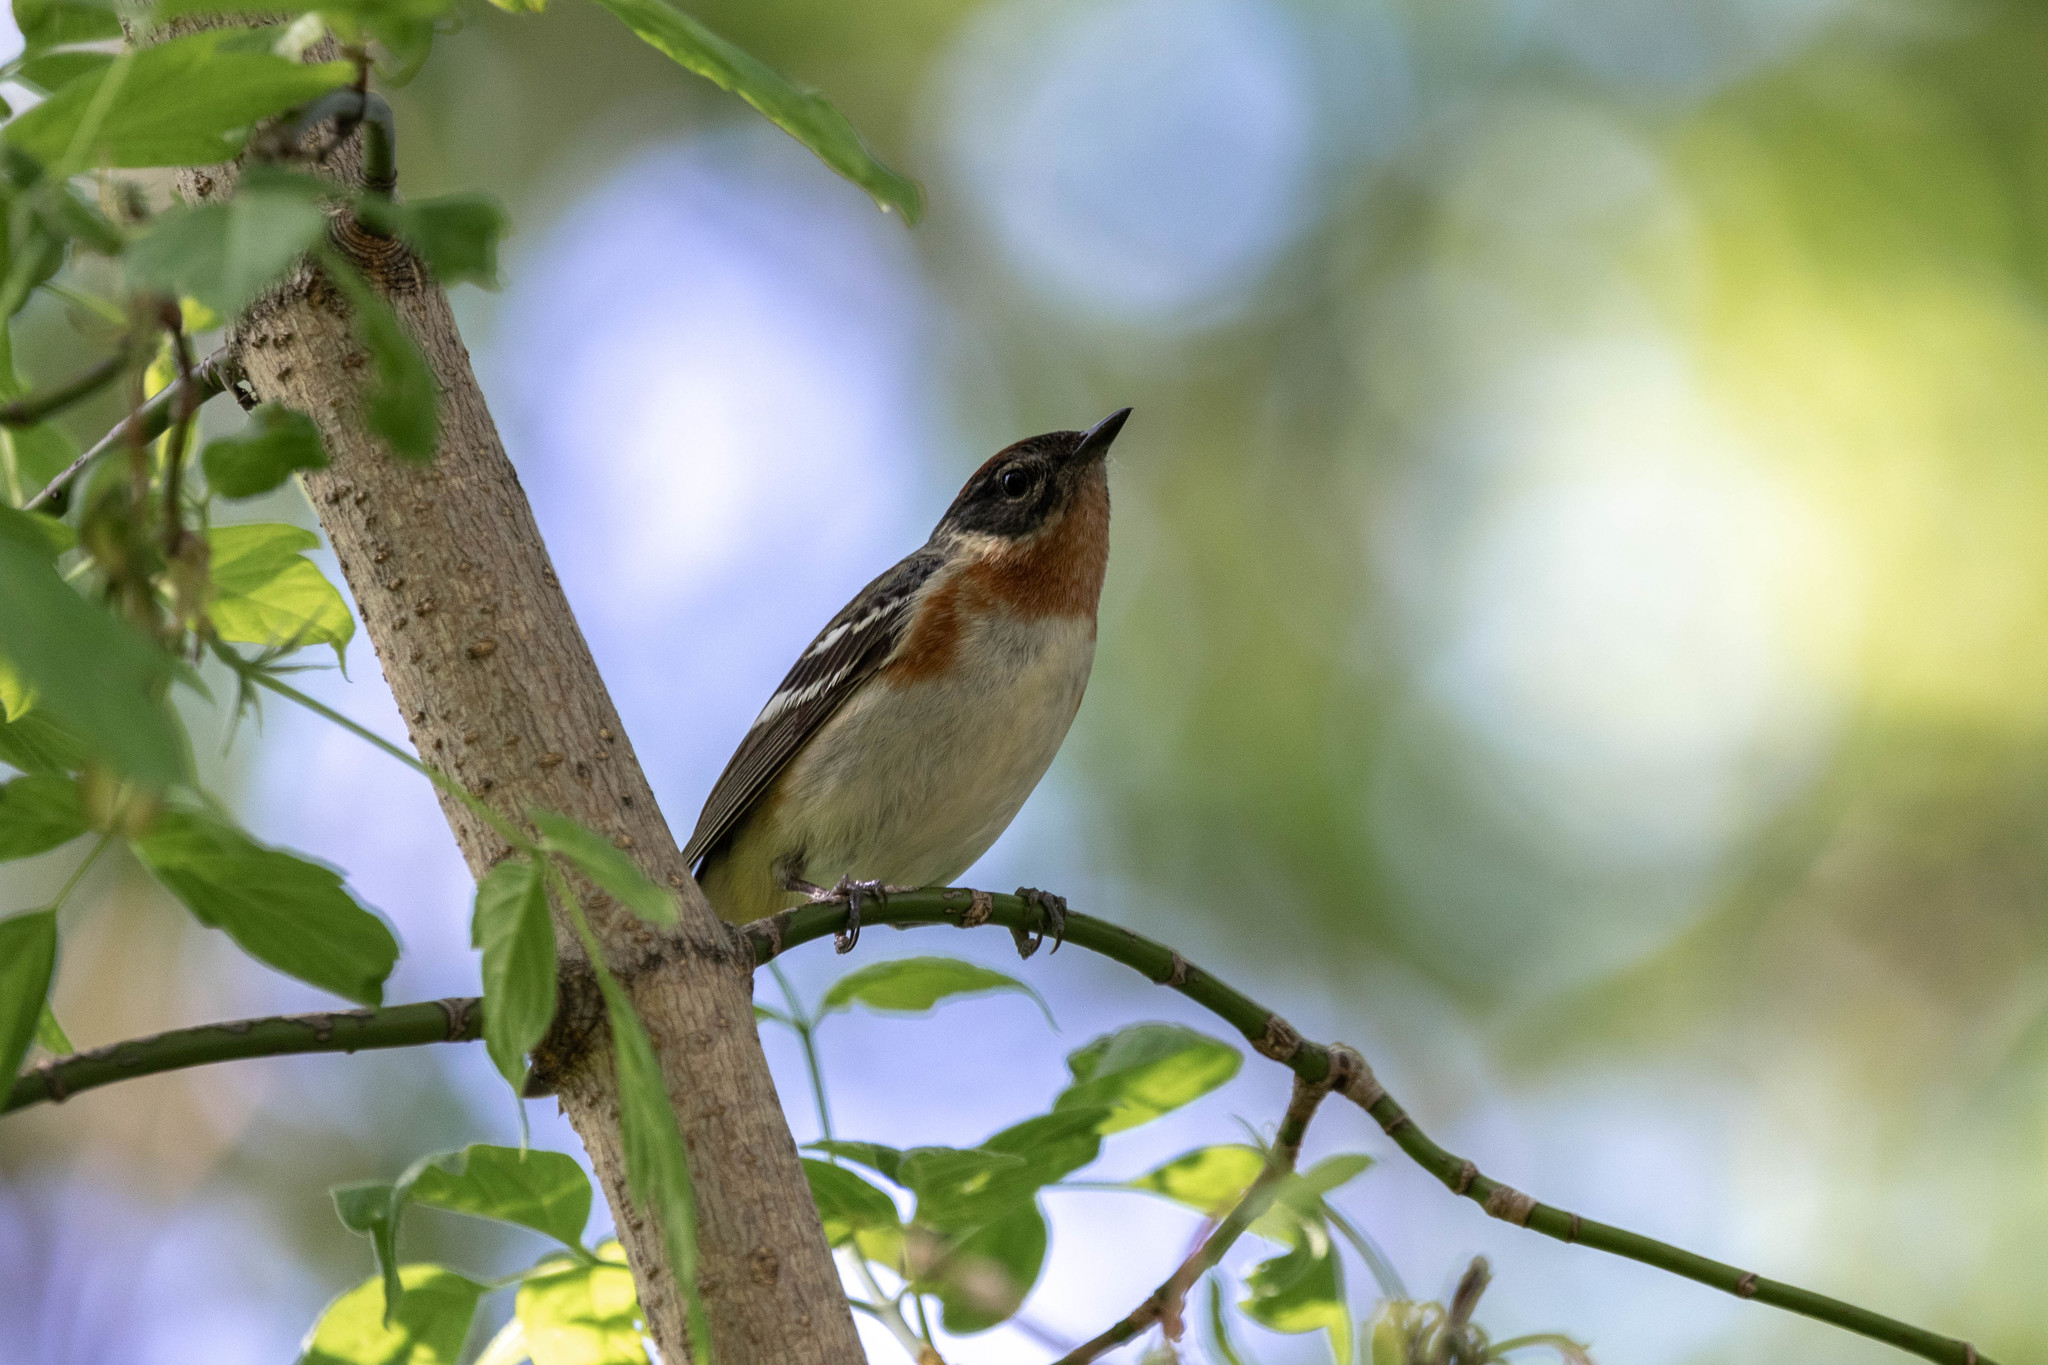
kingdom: Animalia
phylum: Chordata
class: Aves
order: Passeriformes
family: Parulidae
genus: Setophaga
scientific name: Setophaga castanea
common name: Bay-breasted warbler
